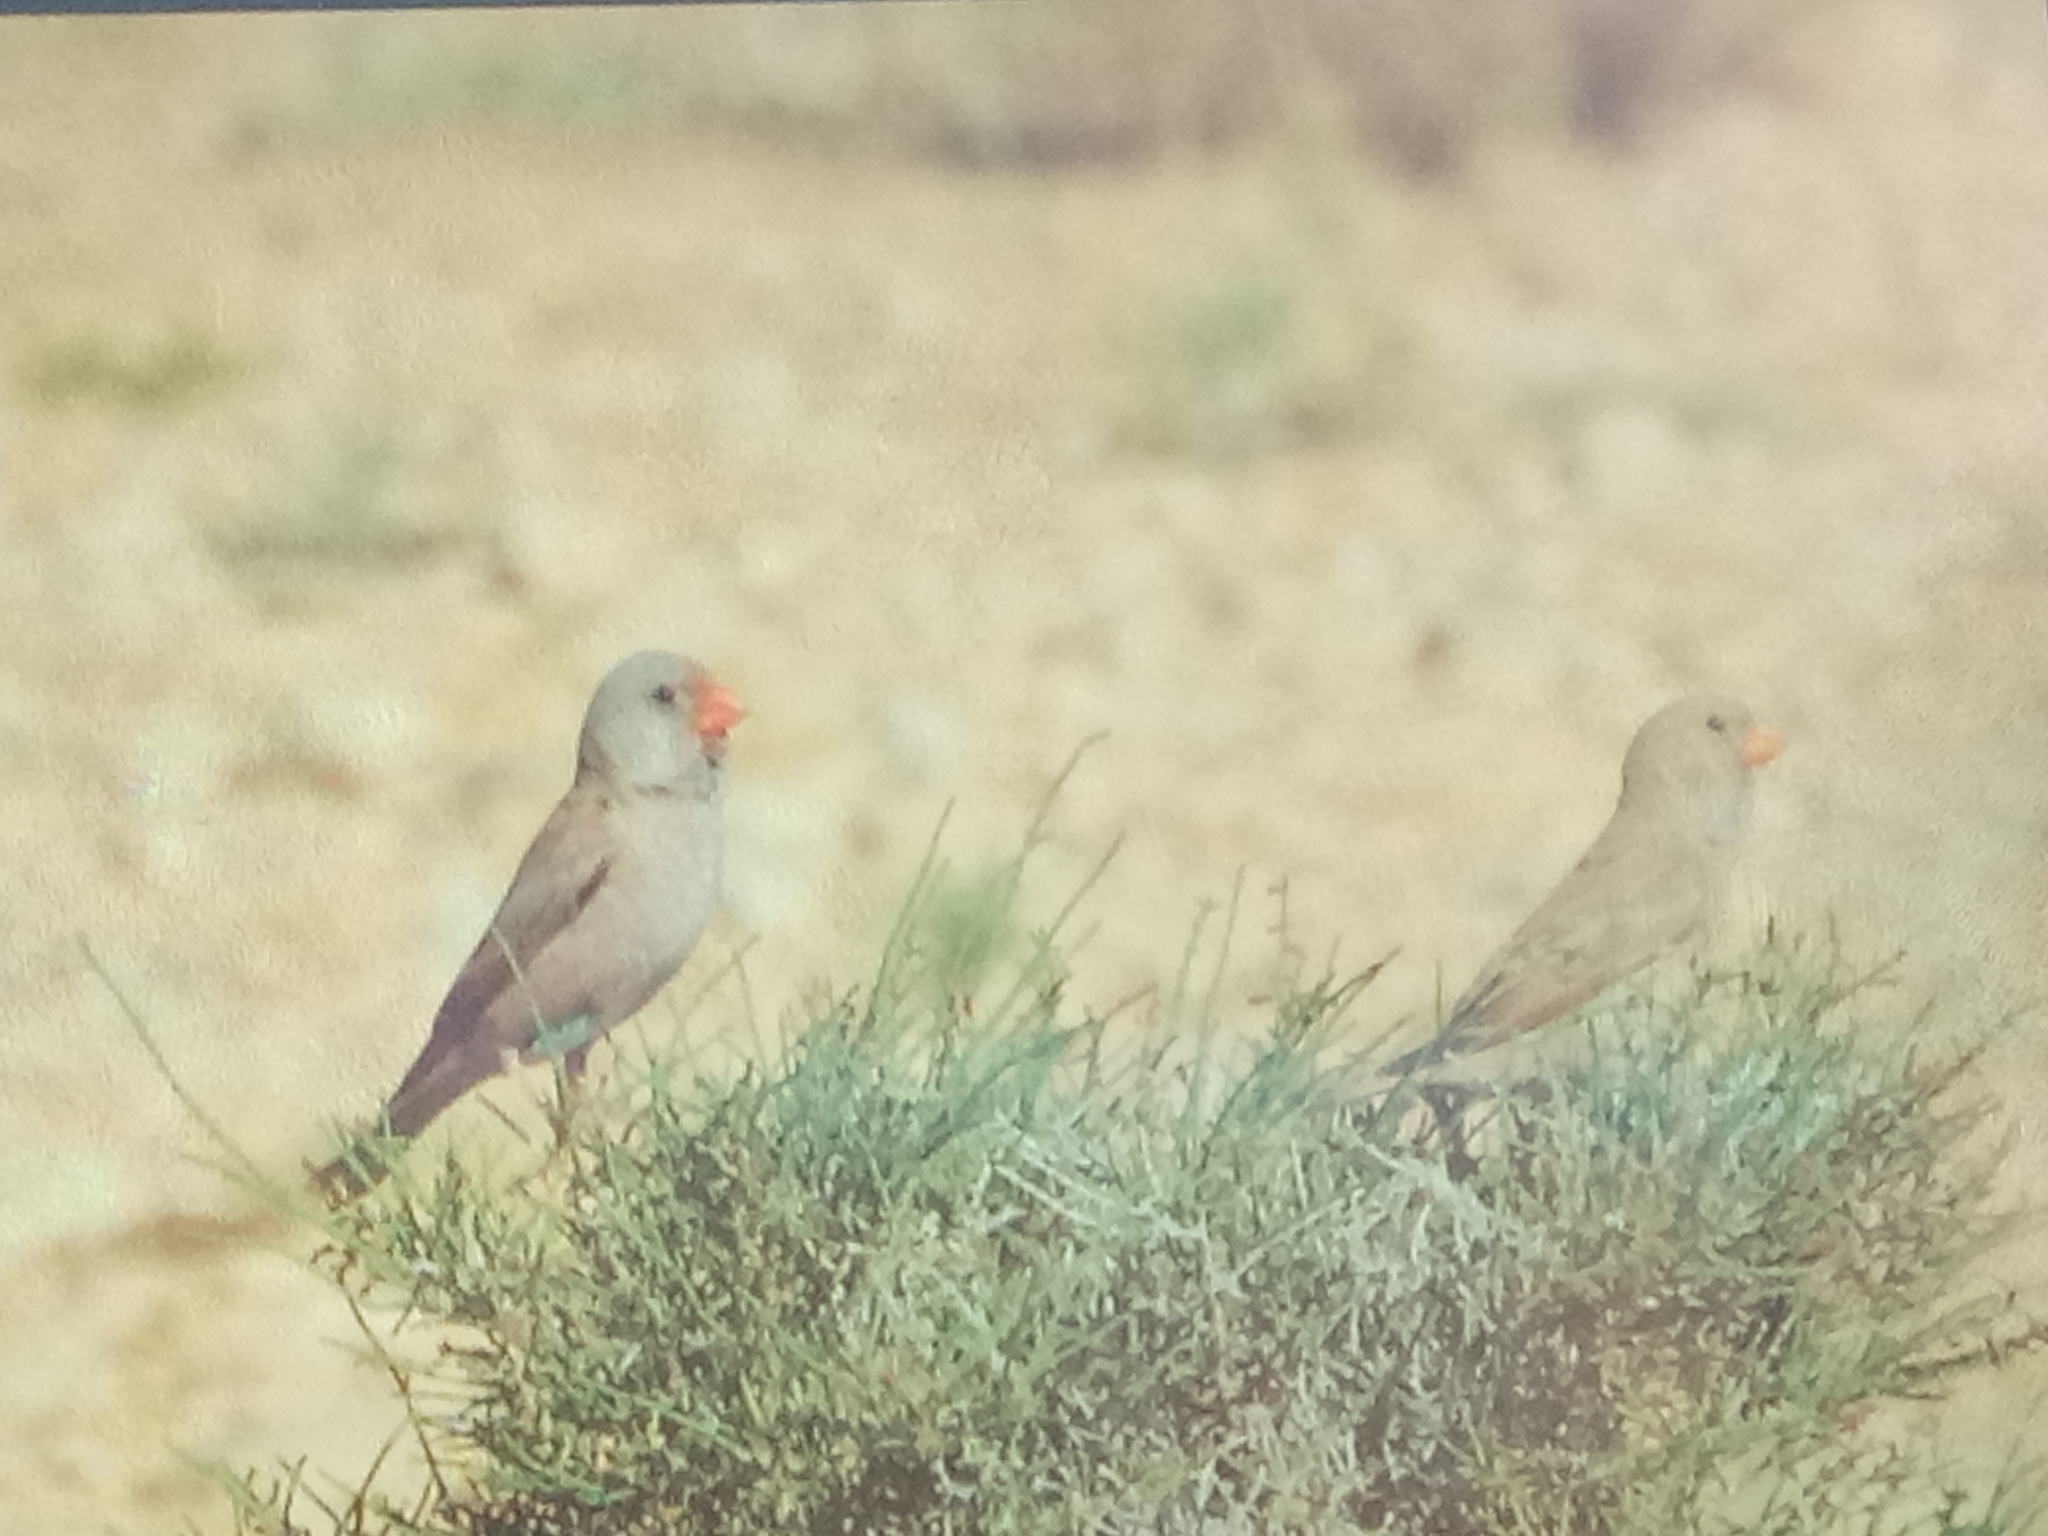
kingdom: Animalia
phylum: Chordata
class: Aves
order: Passeriformes
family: Fringillidae
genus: Bucanetes
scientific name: Bucanetes githagineus
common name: Trumpeter finch
